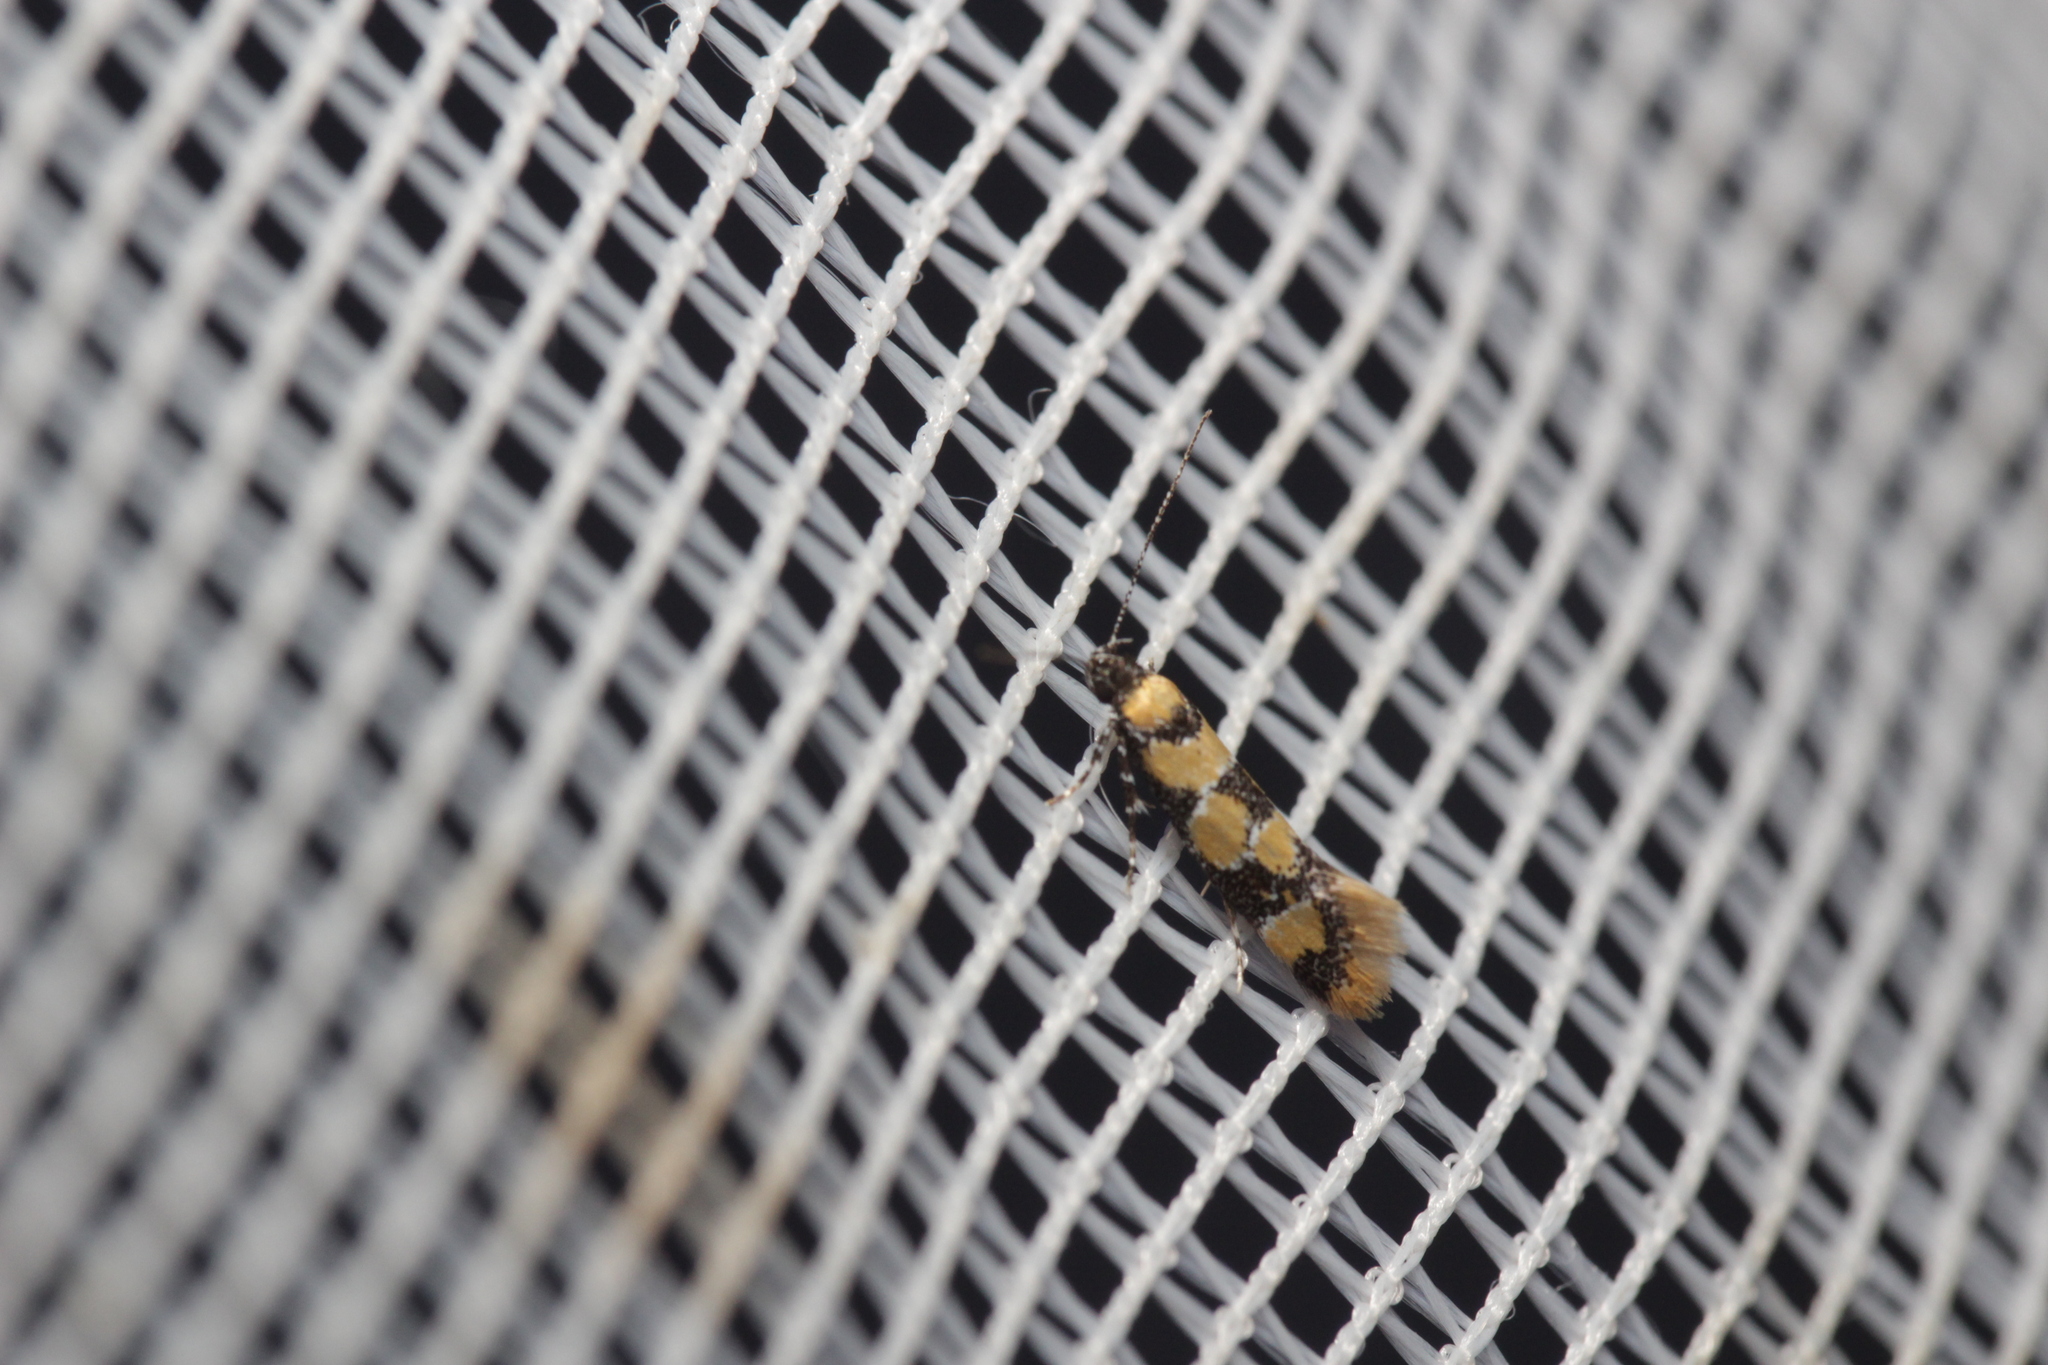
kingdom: Animalia
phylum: Arthropoda
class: Insecta
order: Lepidoptera
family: Oecophoridae
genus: Decantha
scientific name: Decantha borkhausenii
